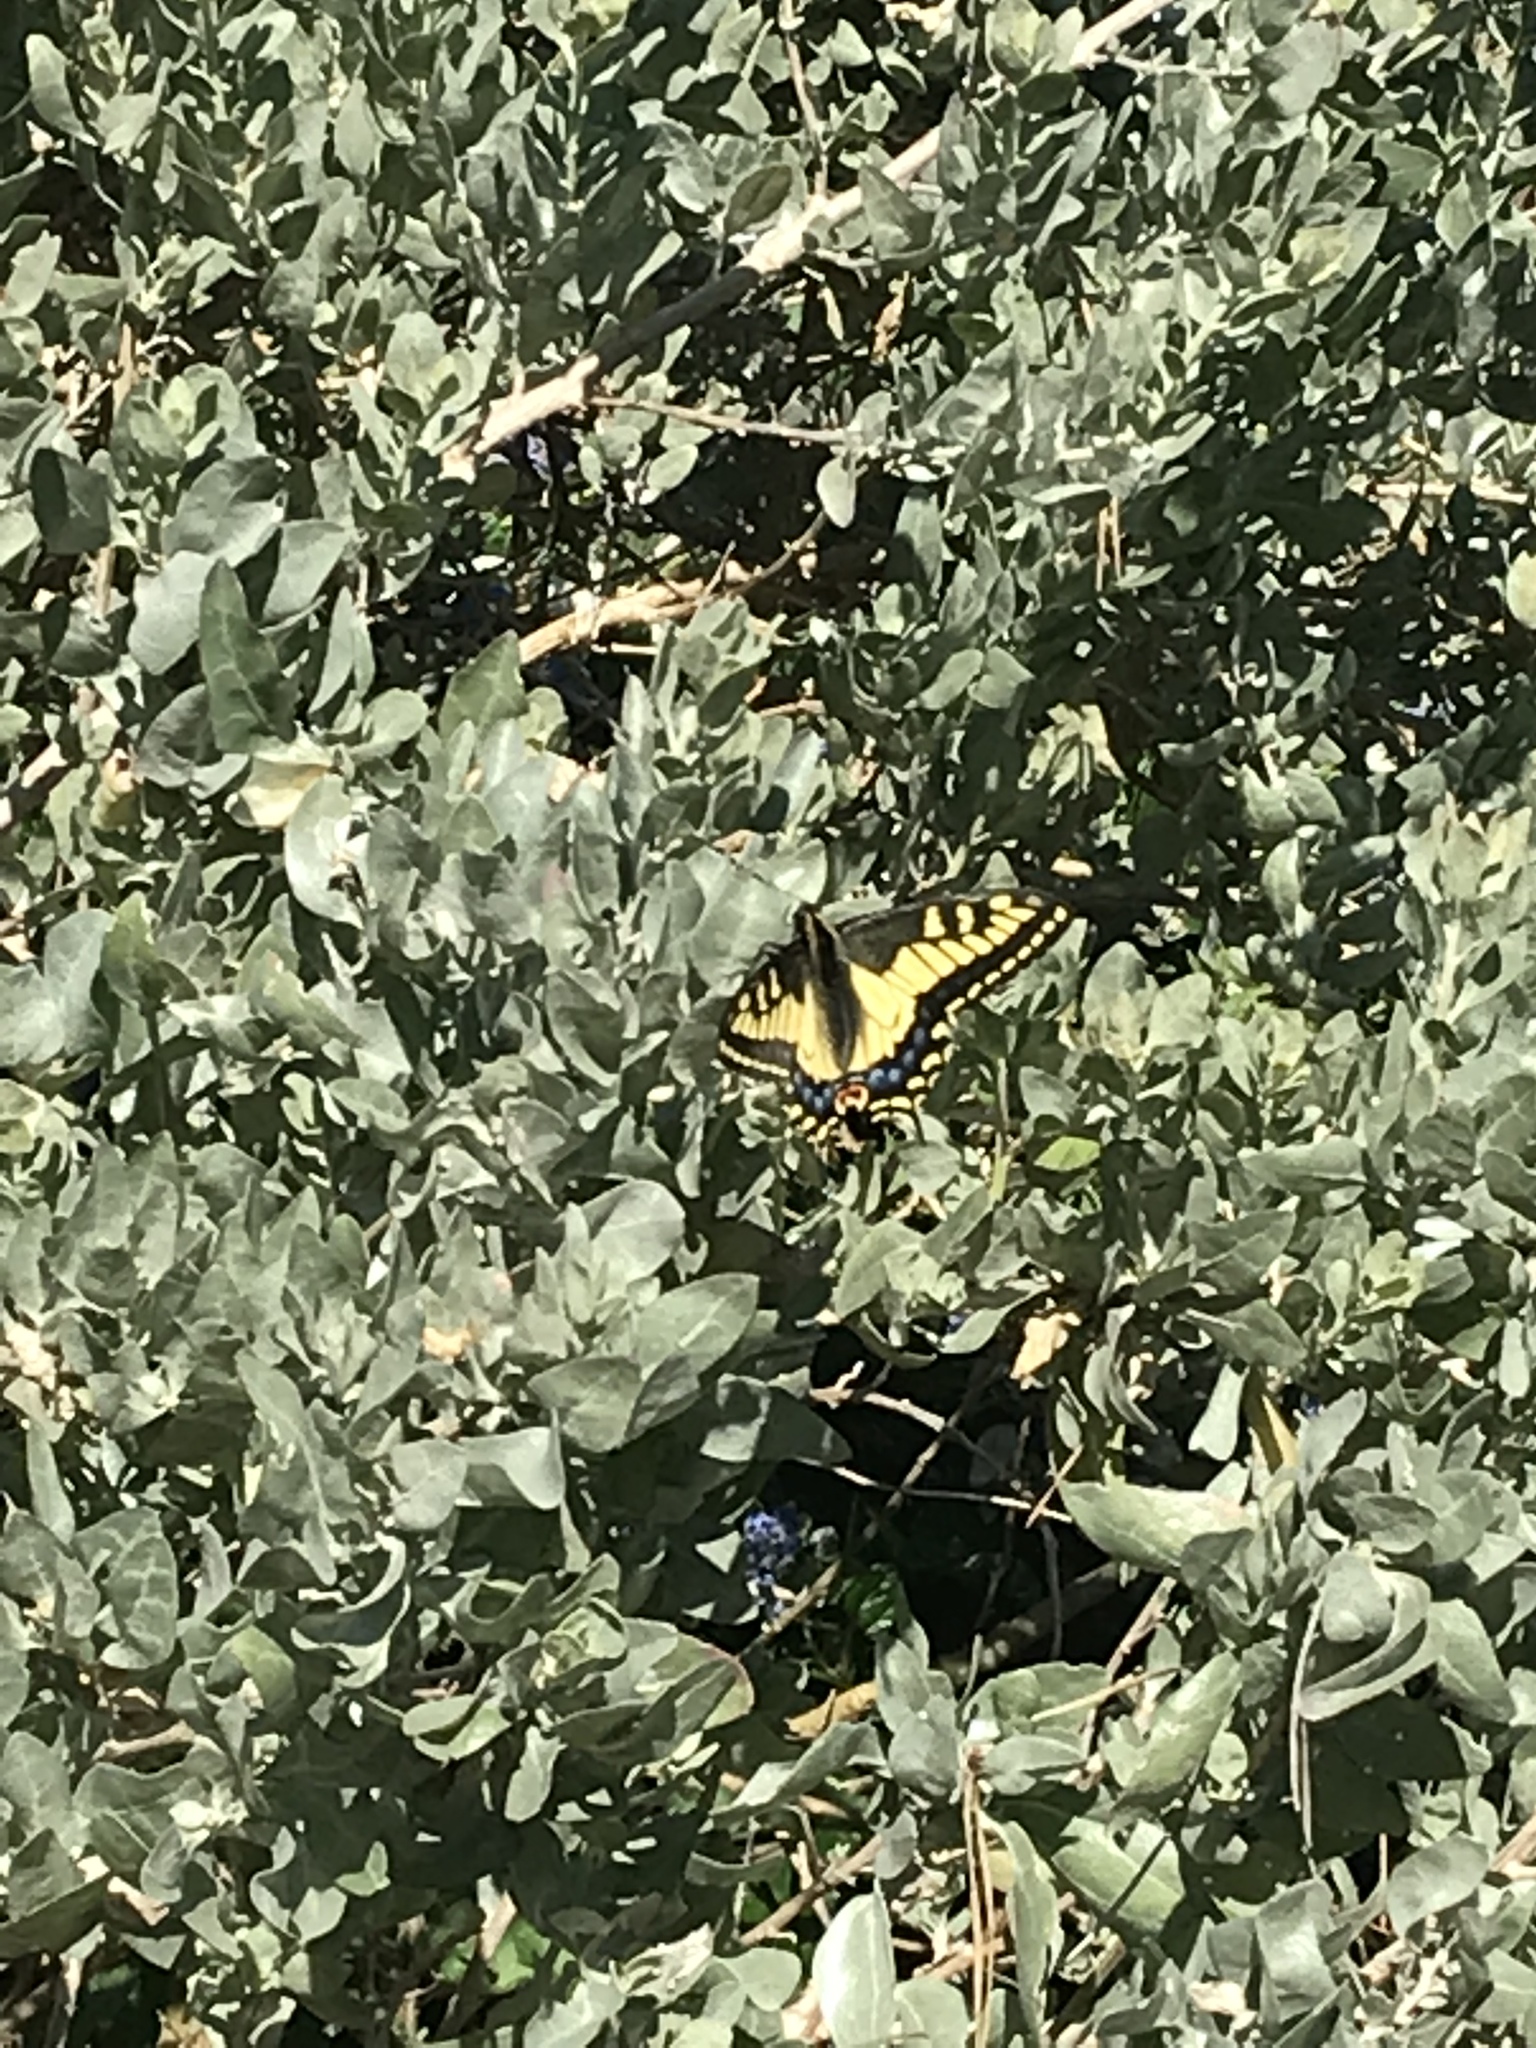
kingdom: Animalia
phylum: Arthropoda
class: Insecta
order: Lepidoptera
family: Papilionidae
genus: Papilio
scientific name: Papilio zelicaon
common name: Anise swallowtail
